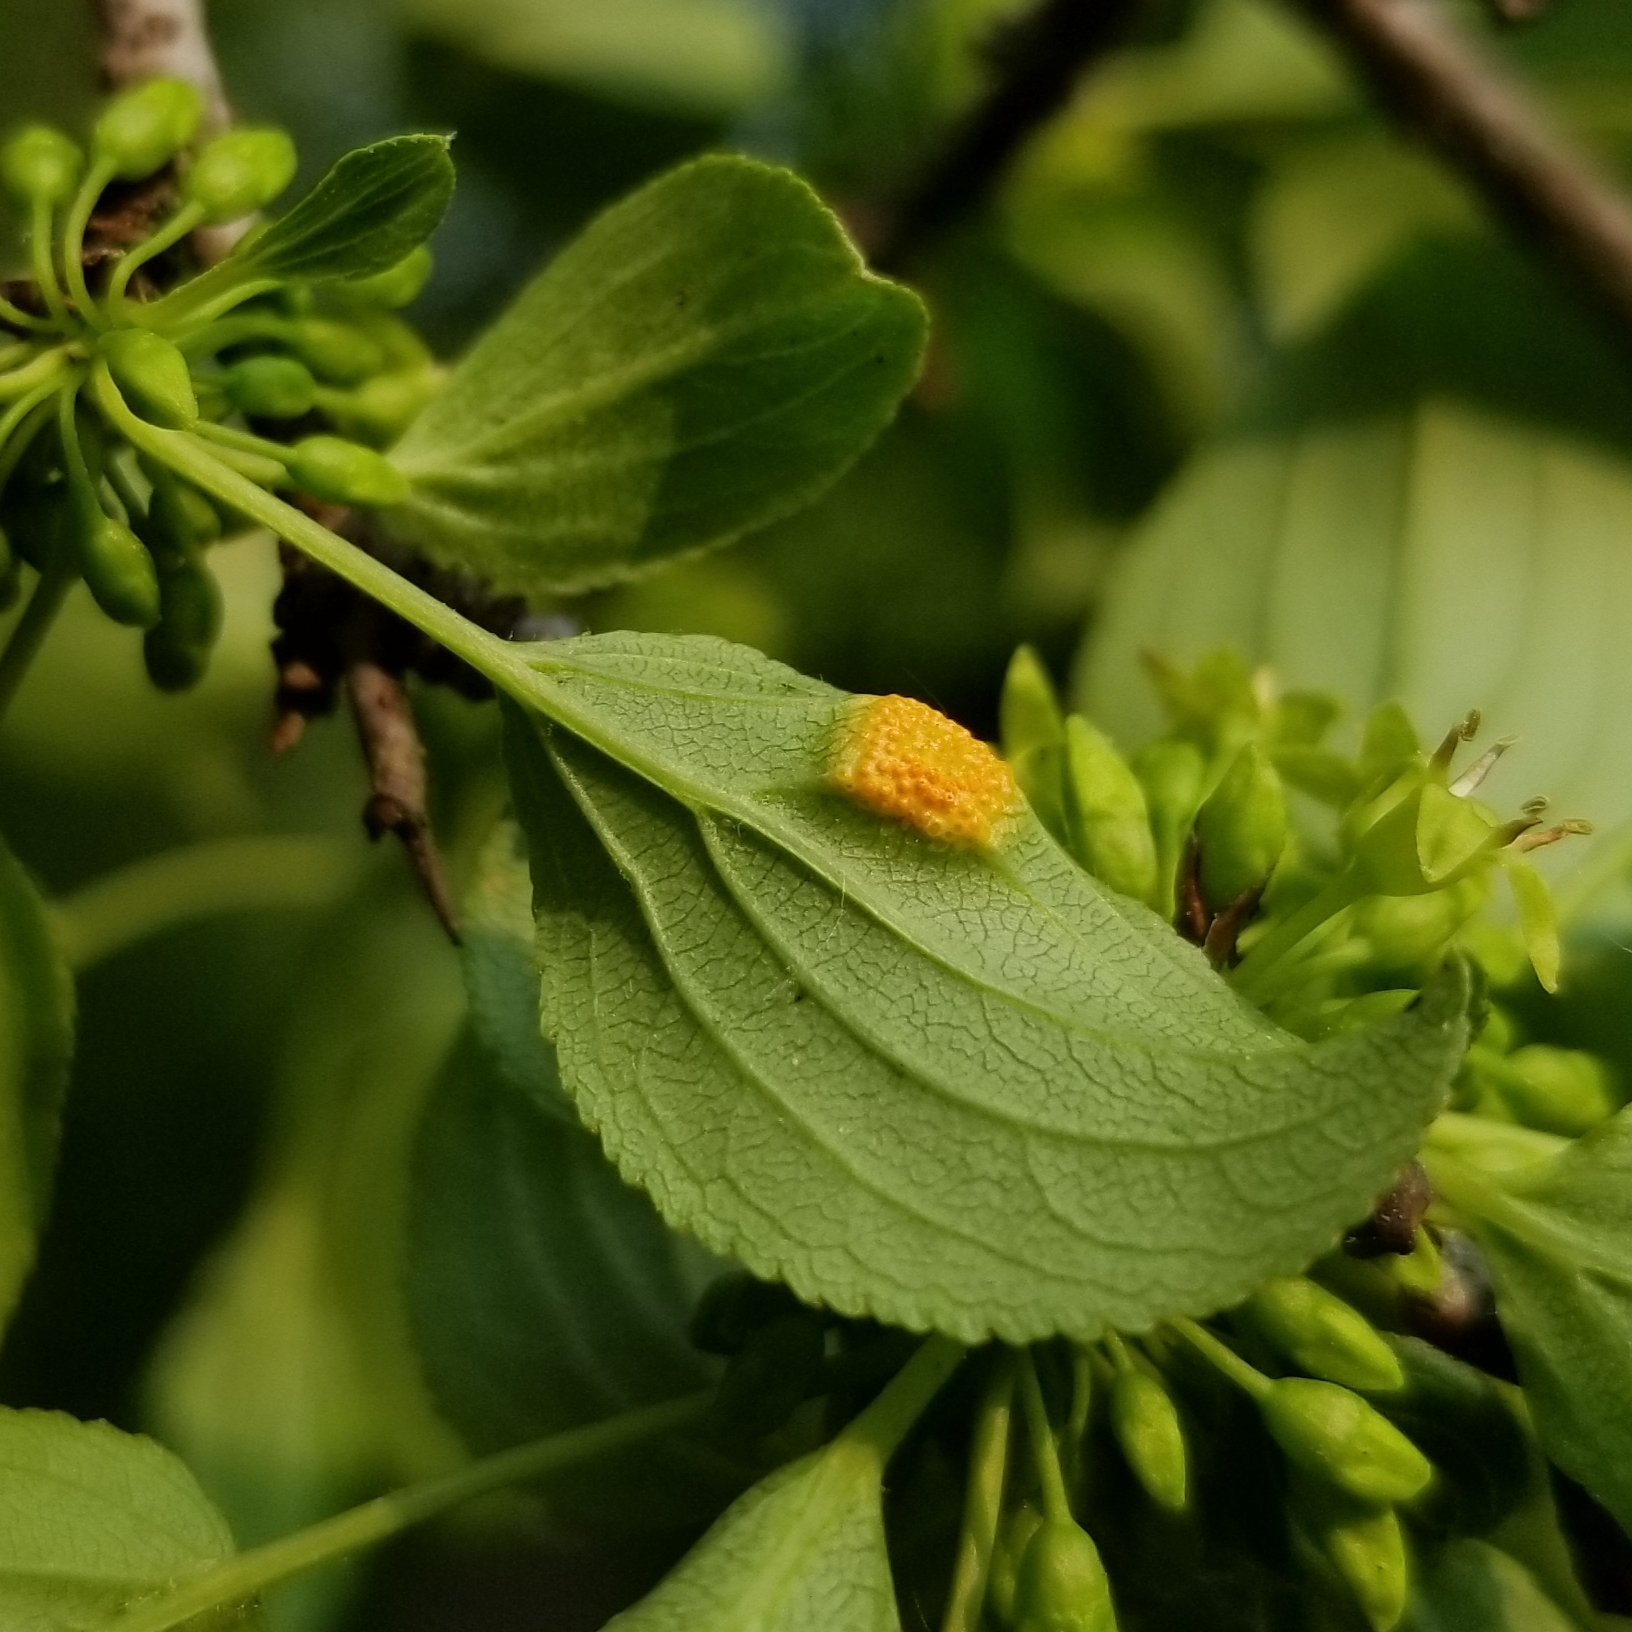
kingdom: Fungi
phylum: Basidiomycota
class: Pucciniomycetes
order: Pucciniales
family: Pucciniaceae
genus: Puccinia
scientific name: Puccinia coronata
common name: Crown rust
